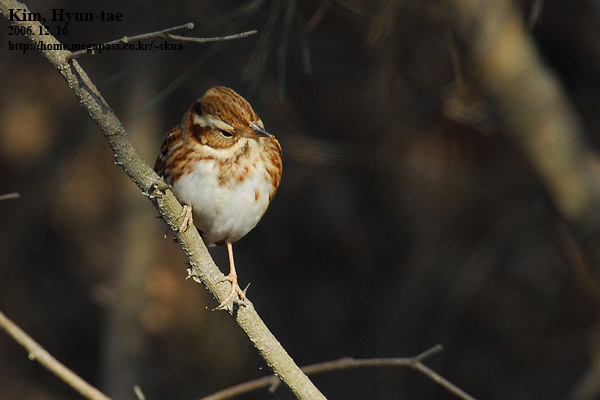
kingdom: Animalia
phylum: Chordata
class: Aves
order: Passeriformes
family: Emberizidae
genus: Emberiza
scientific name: Emberiza rustica
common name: Rustic bunting
